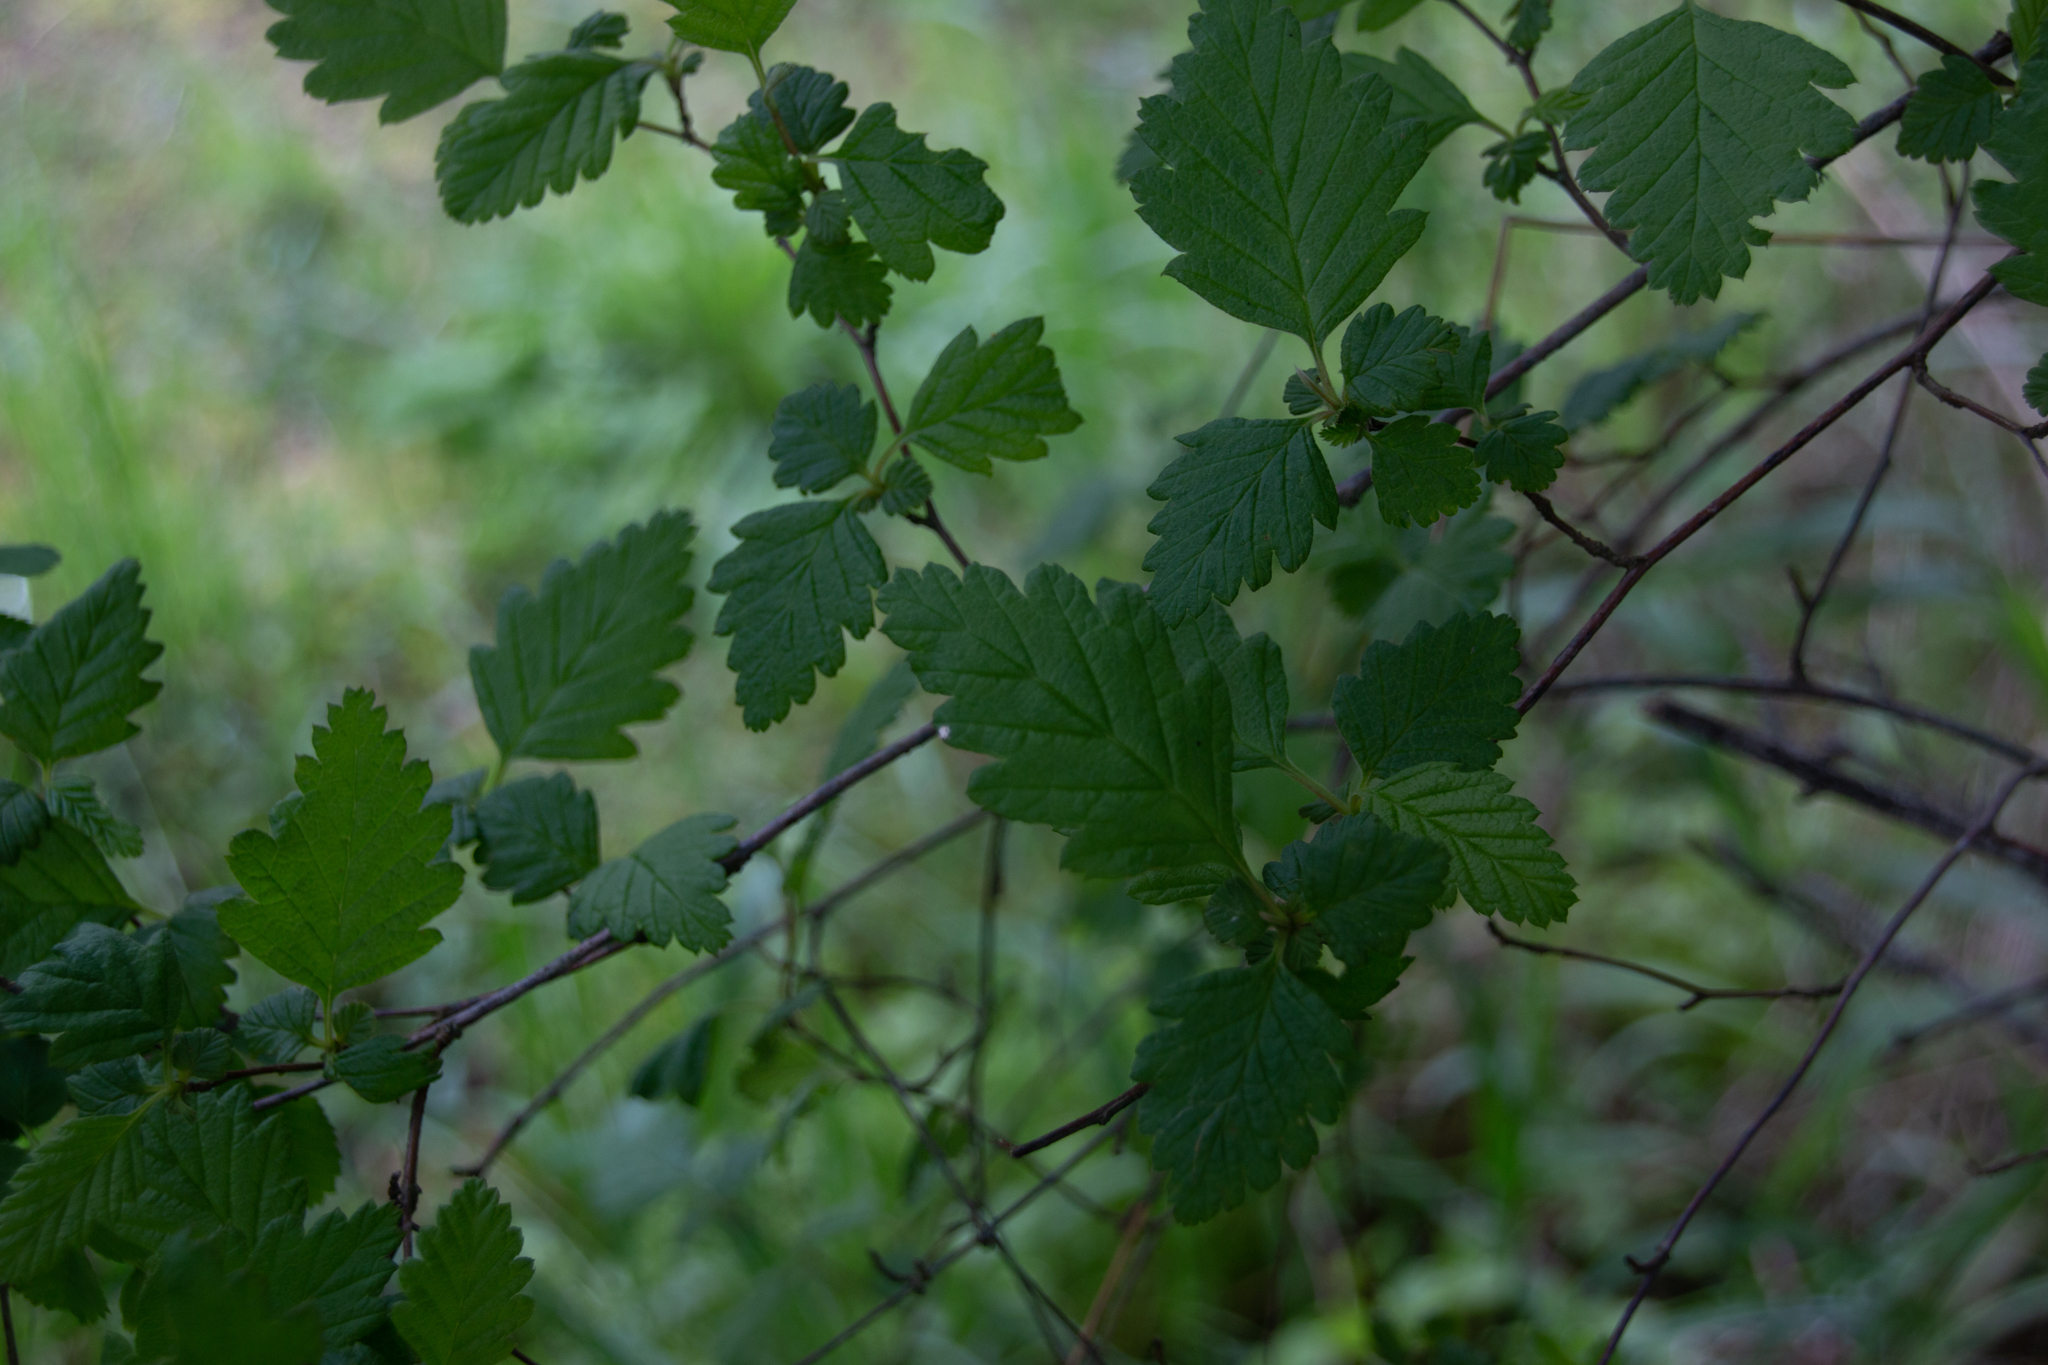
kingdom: Plantae
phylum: Tracheophyta
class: Magnoliopsida
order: Rosales
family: Rosaceae
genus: Holodiscus
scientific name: Holodiscus discolor
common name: Oceanspray
